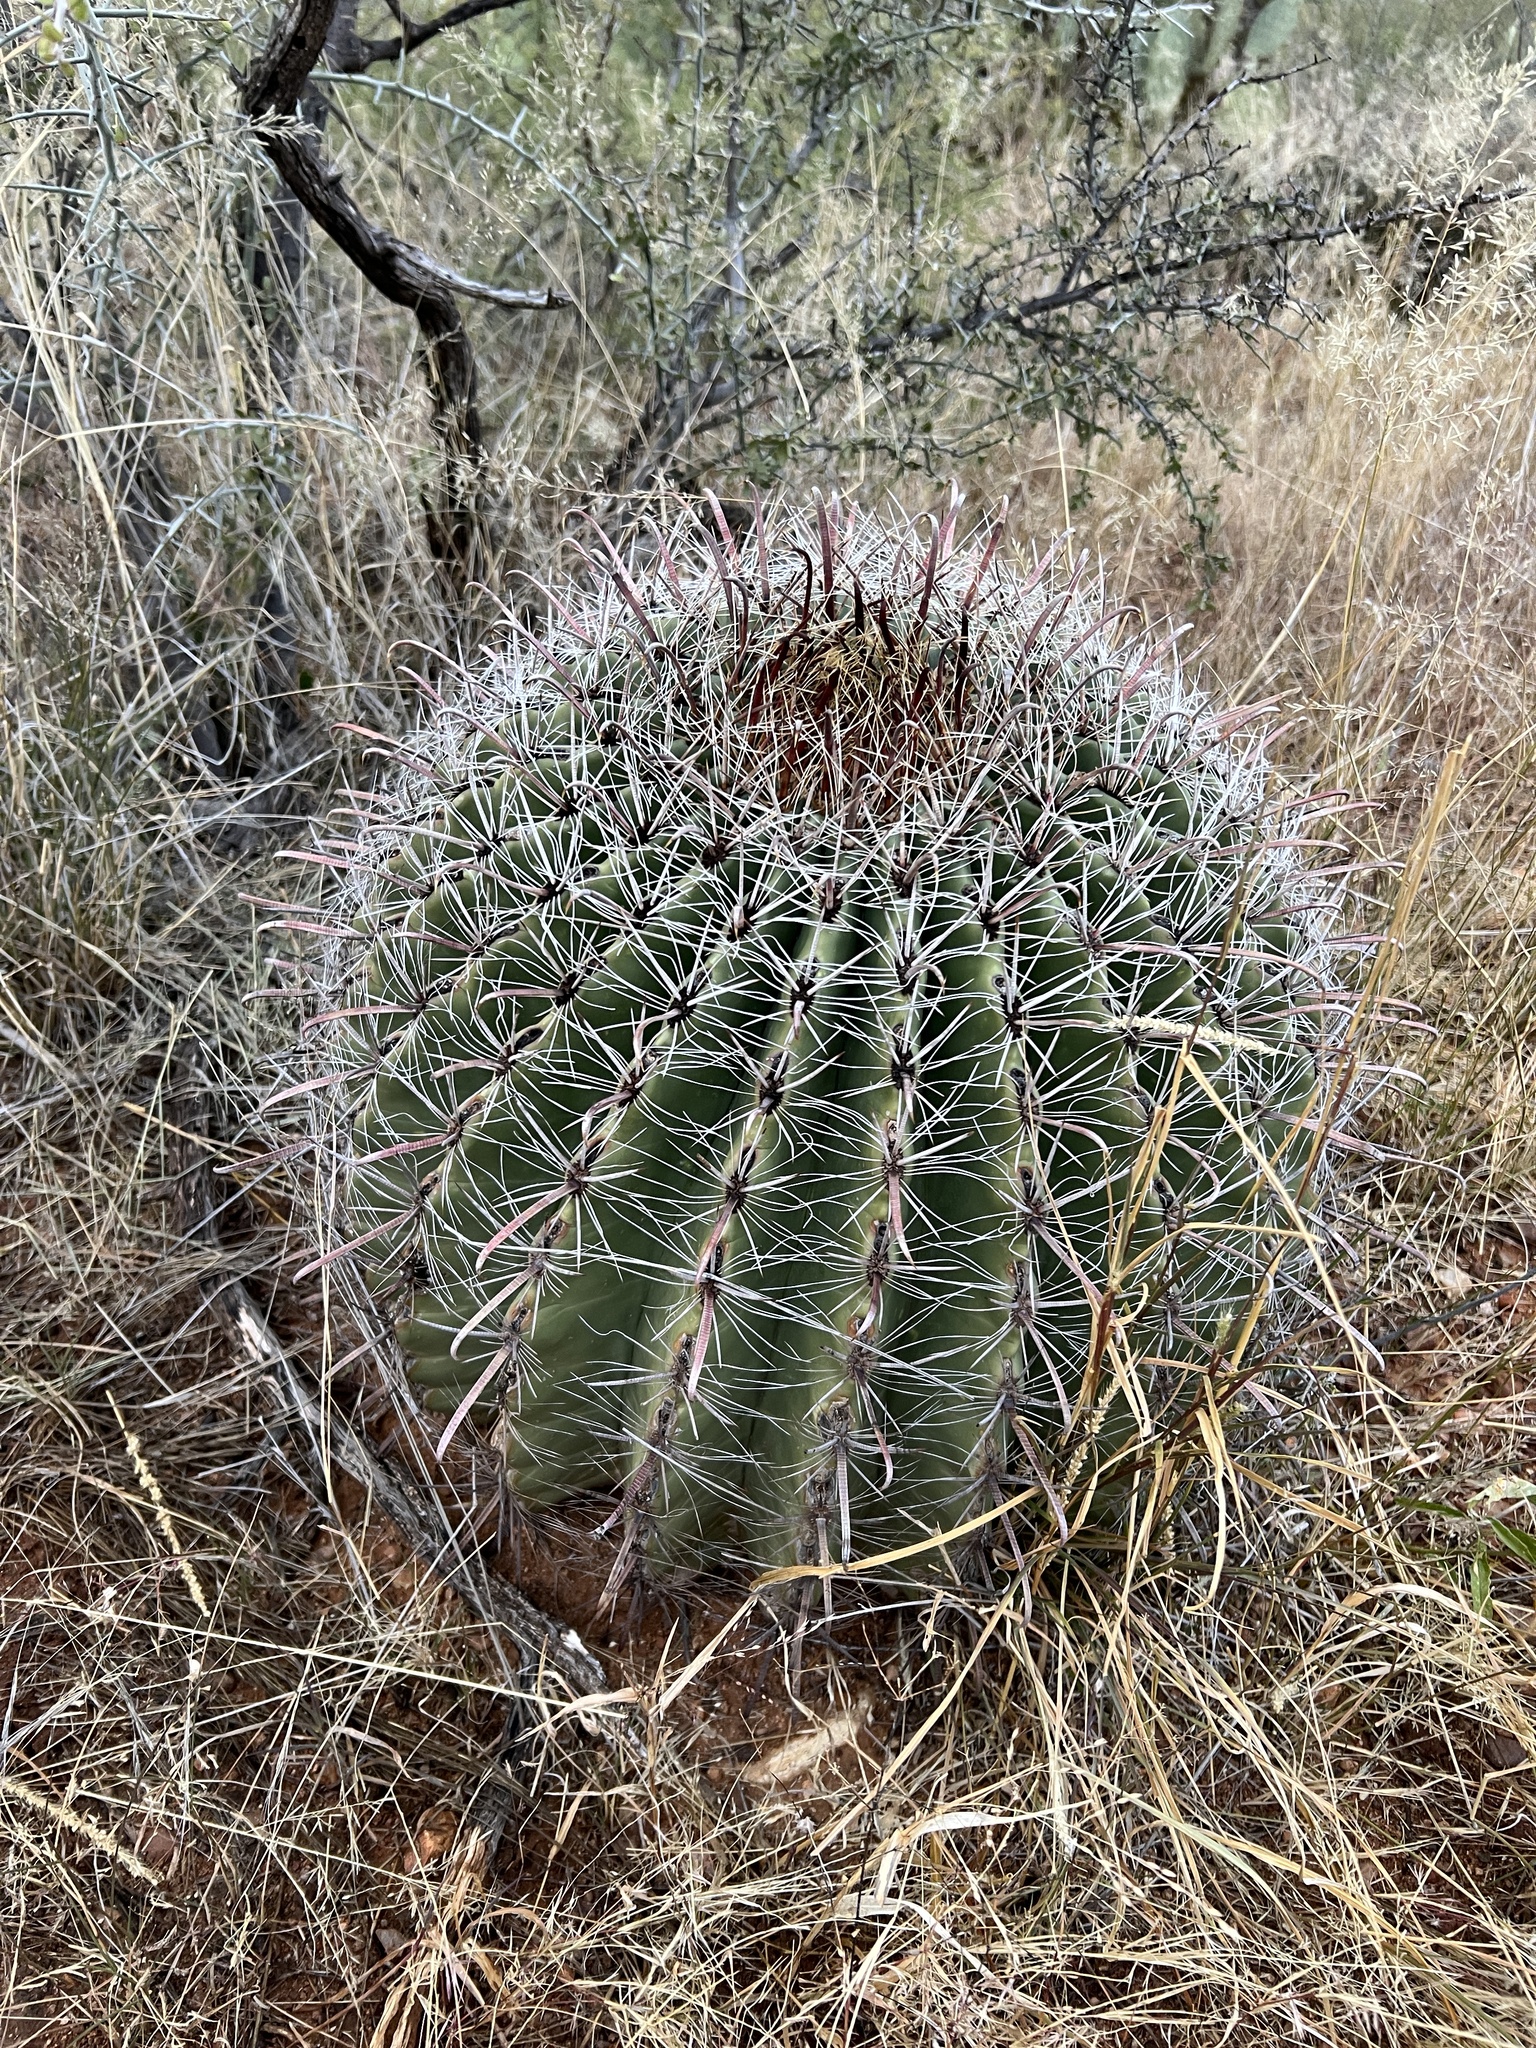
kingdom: Plantae
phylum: Tracheophyta
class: Magnoliopsida
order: Caryophyllales
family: Cactaceae
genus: Ferocactus
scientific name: Ferocactus wislizeni
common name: Candy barrel cactus
